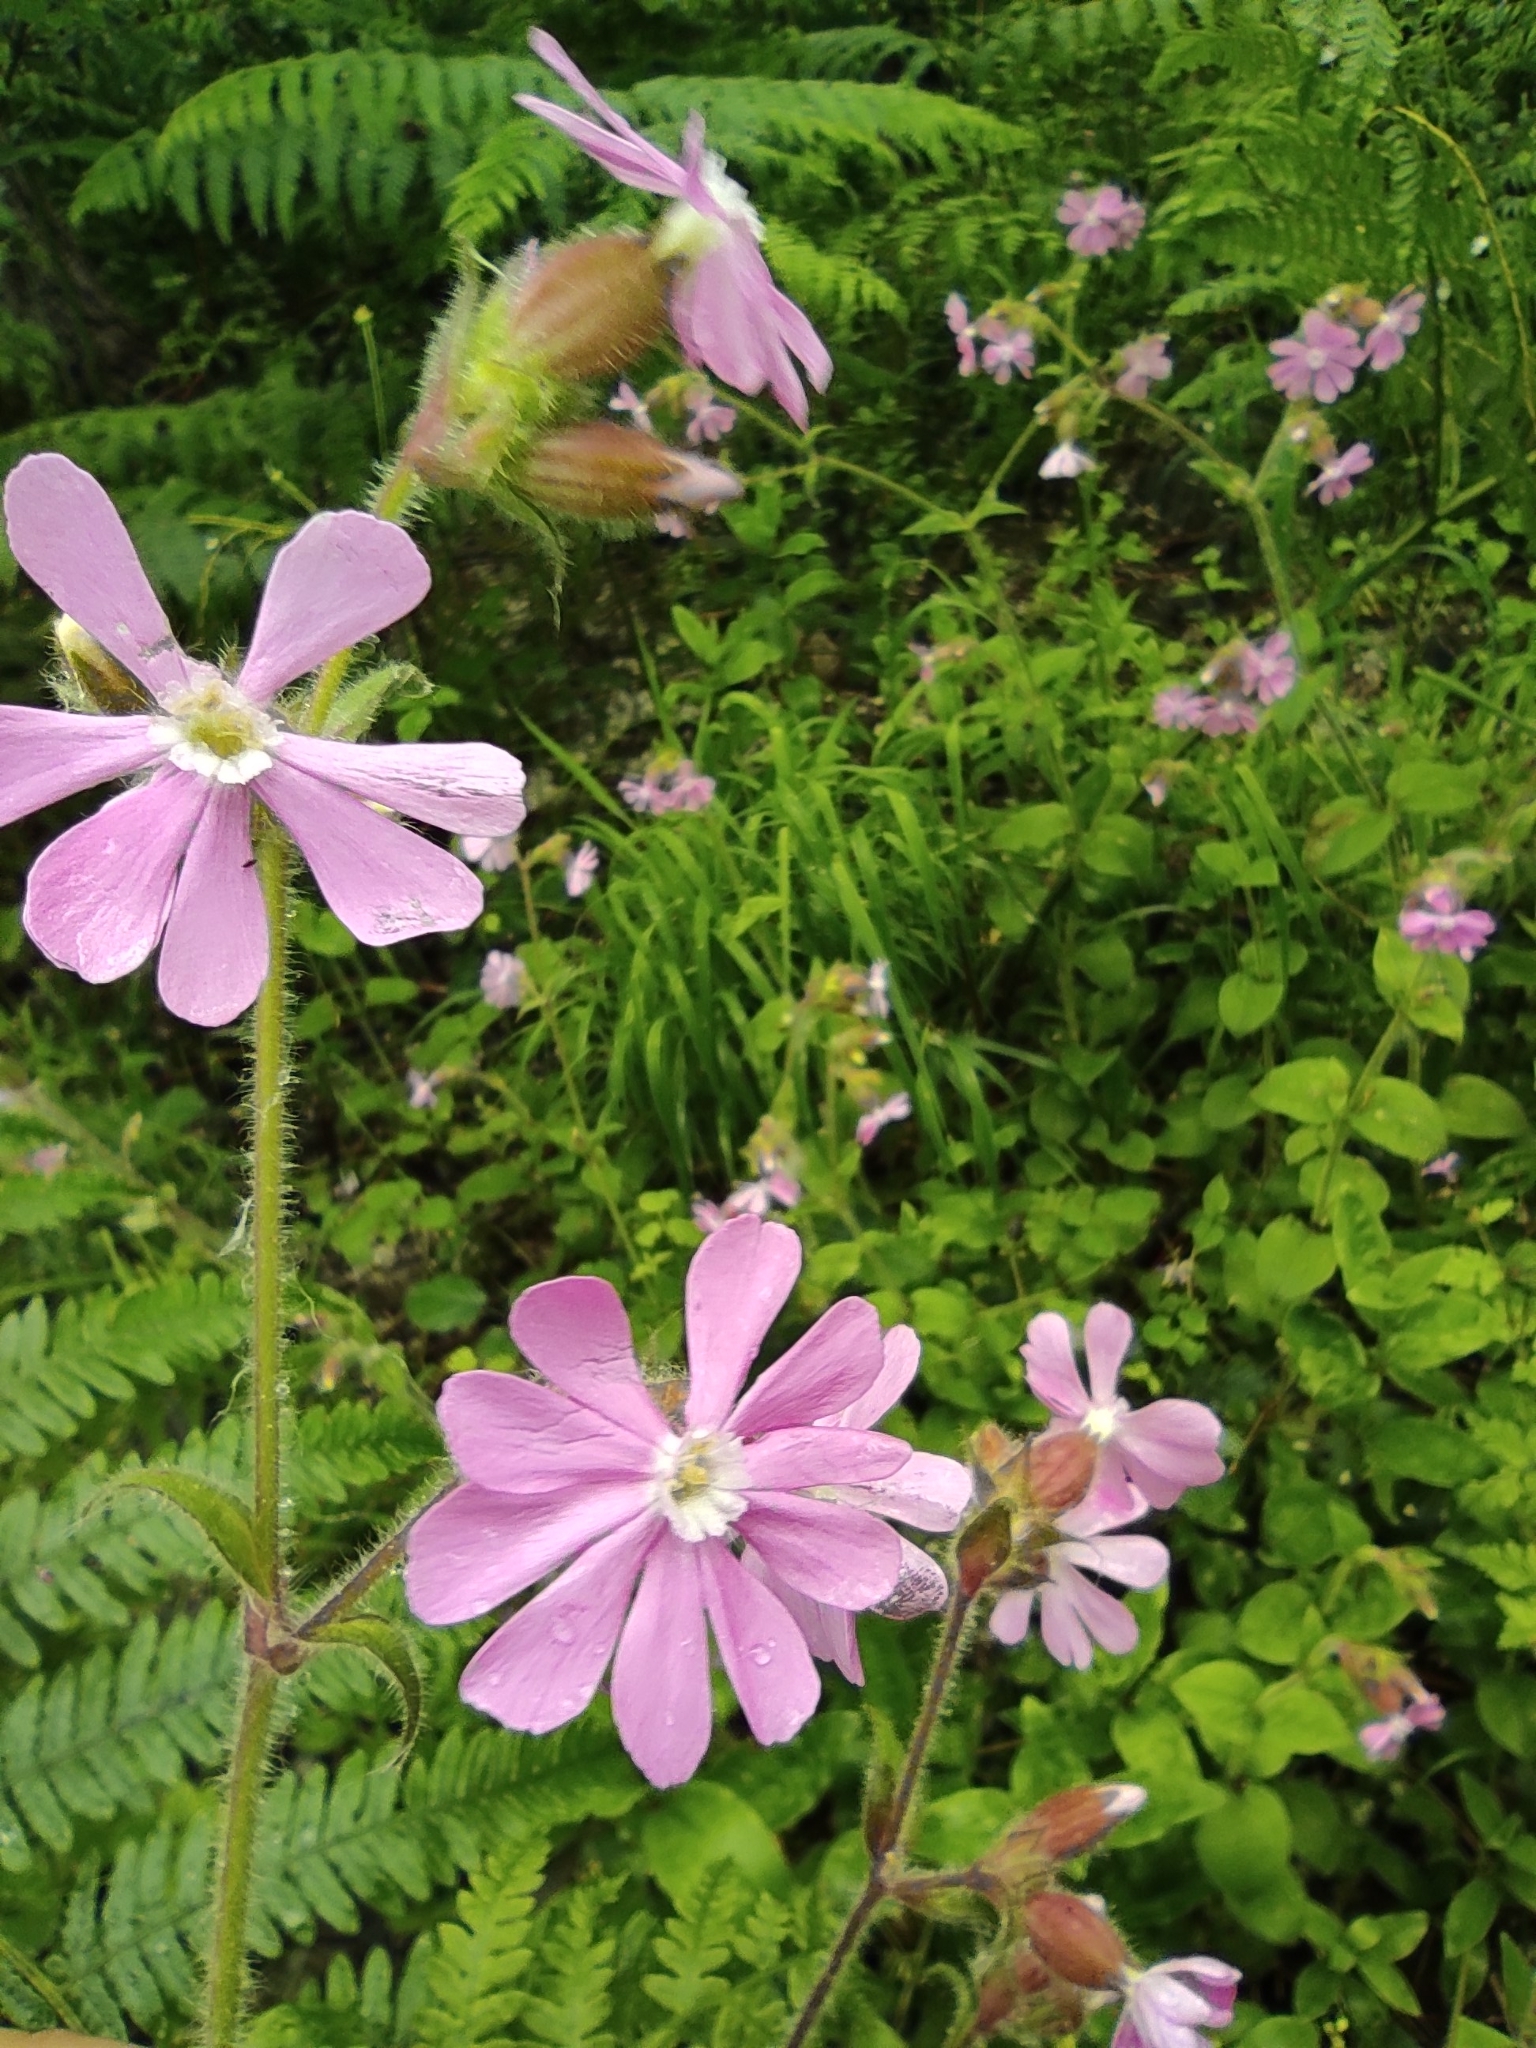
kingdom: Plantae
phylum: Tracheophyta
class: Magnoliopsida
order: Caryophyllales
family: Caryophyllaceae
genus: Silene
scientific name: Silene dioica
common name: Red campion
